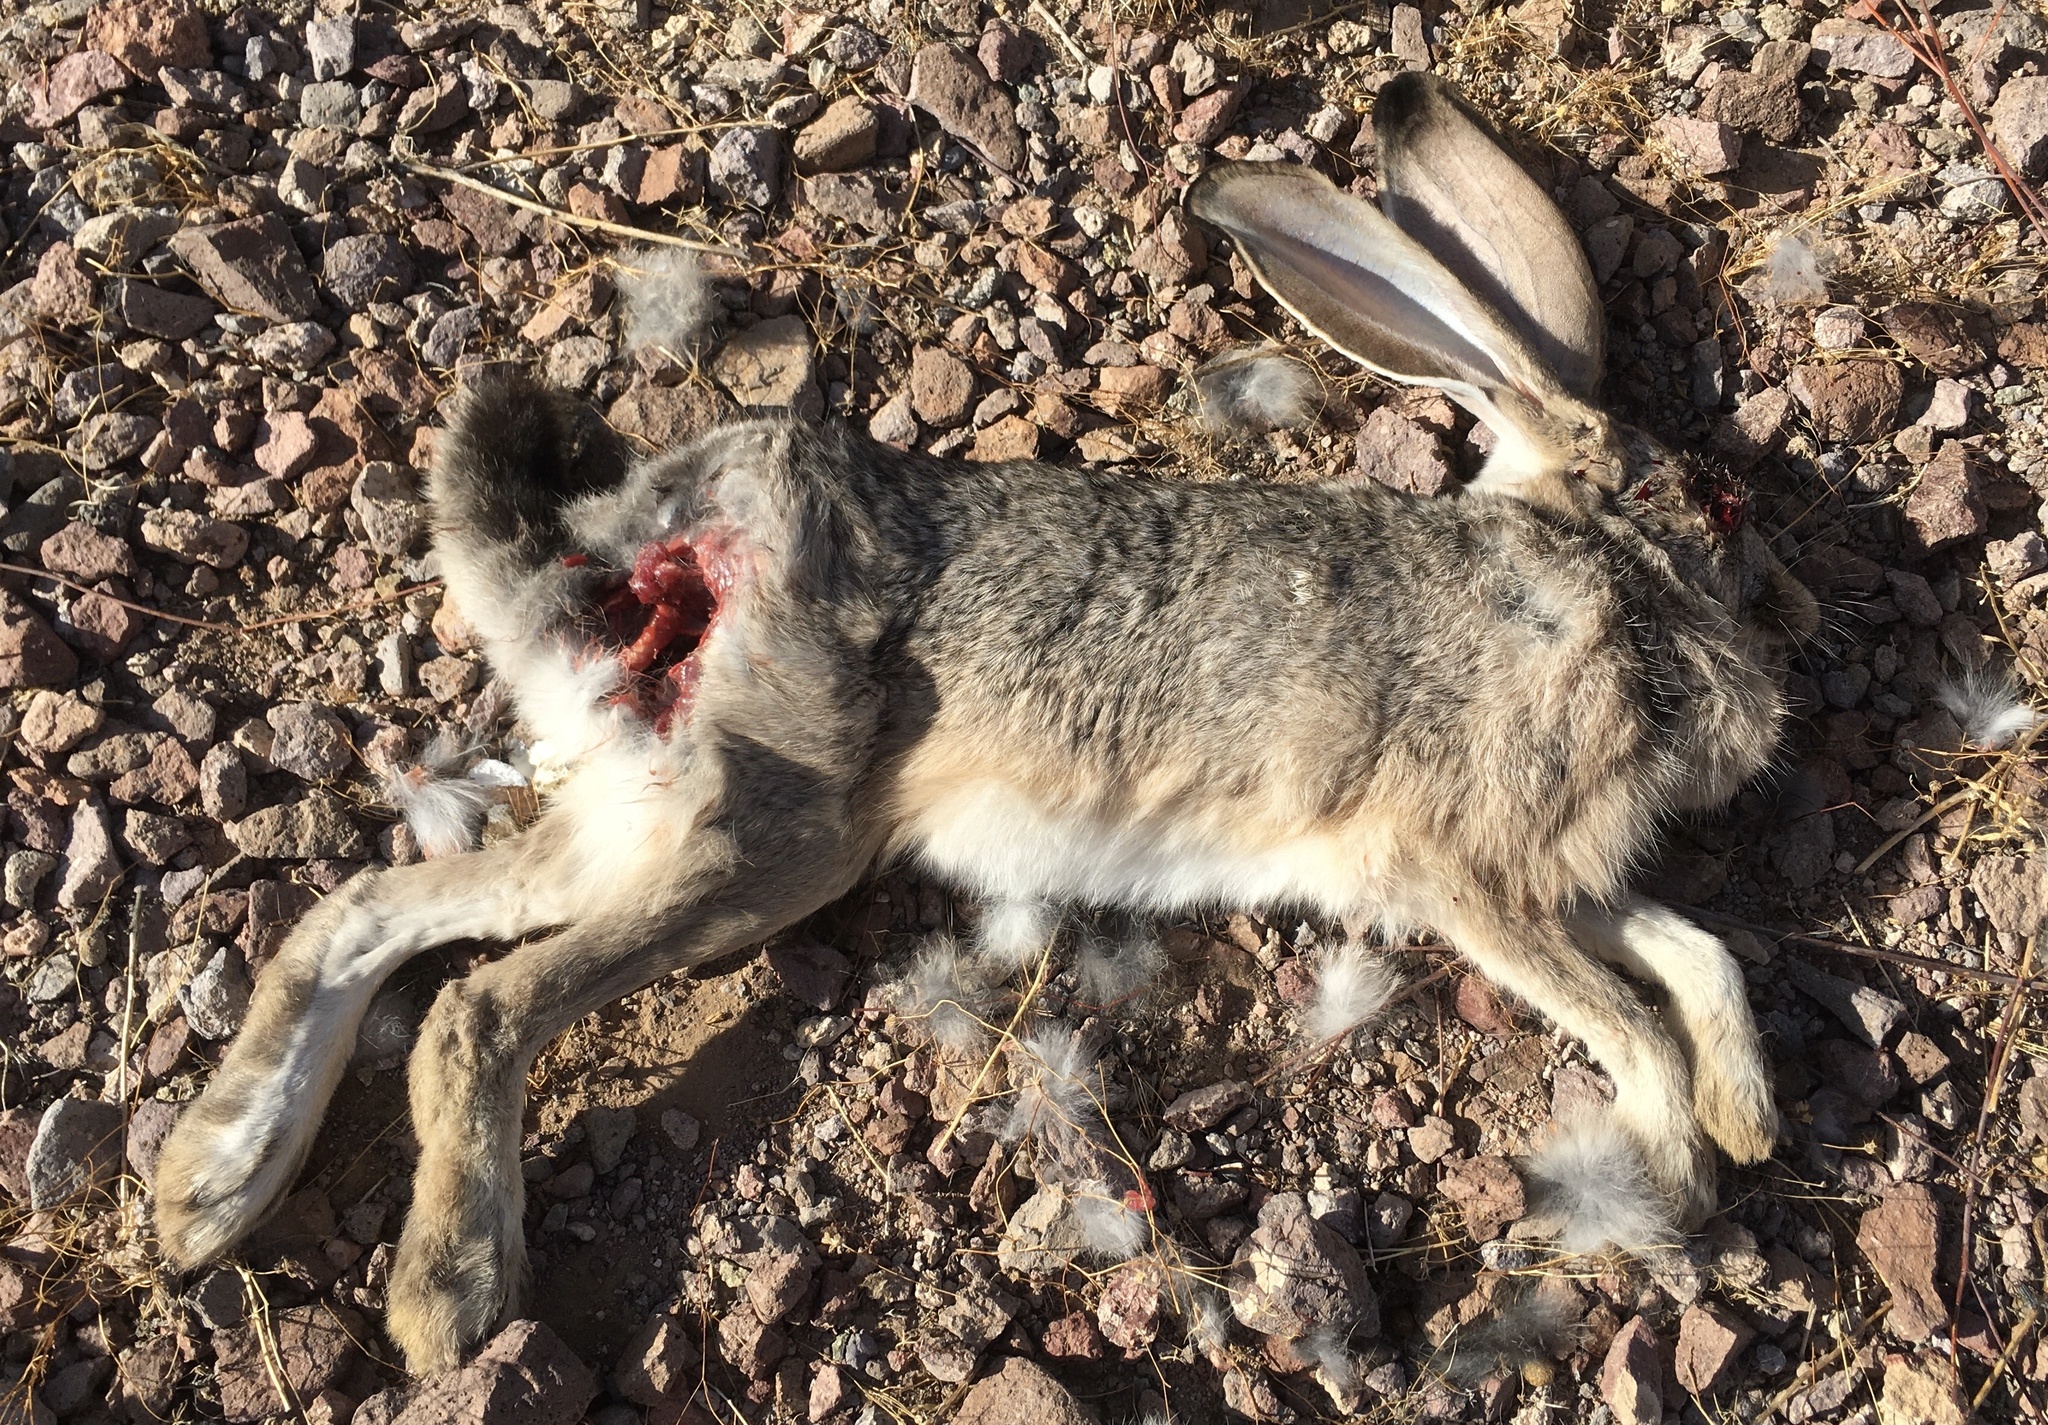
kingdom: Animalia
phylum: Chordata
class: Mammalia
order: Lagomorpha
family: Leporidae
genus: Lepus
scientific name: Lepus californicus
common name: Black-tailed jackrabbit
